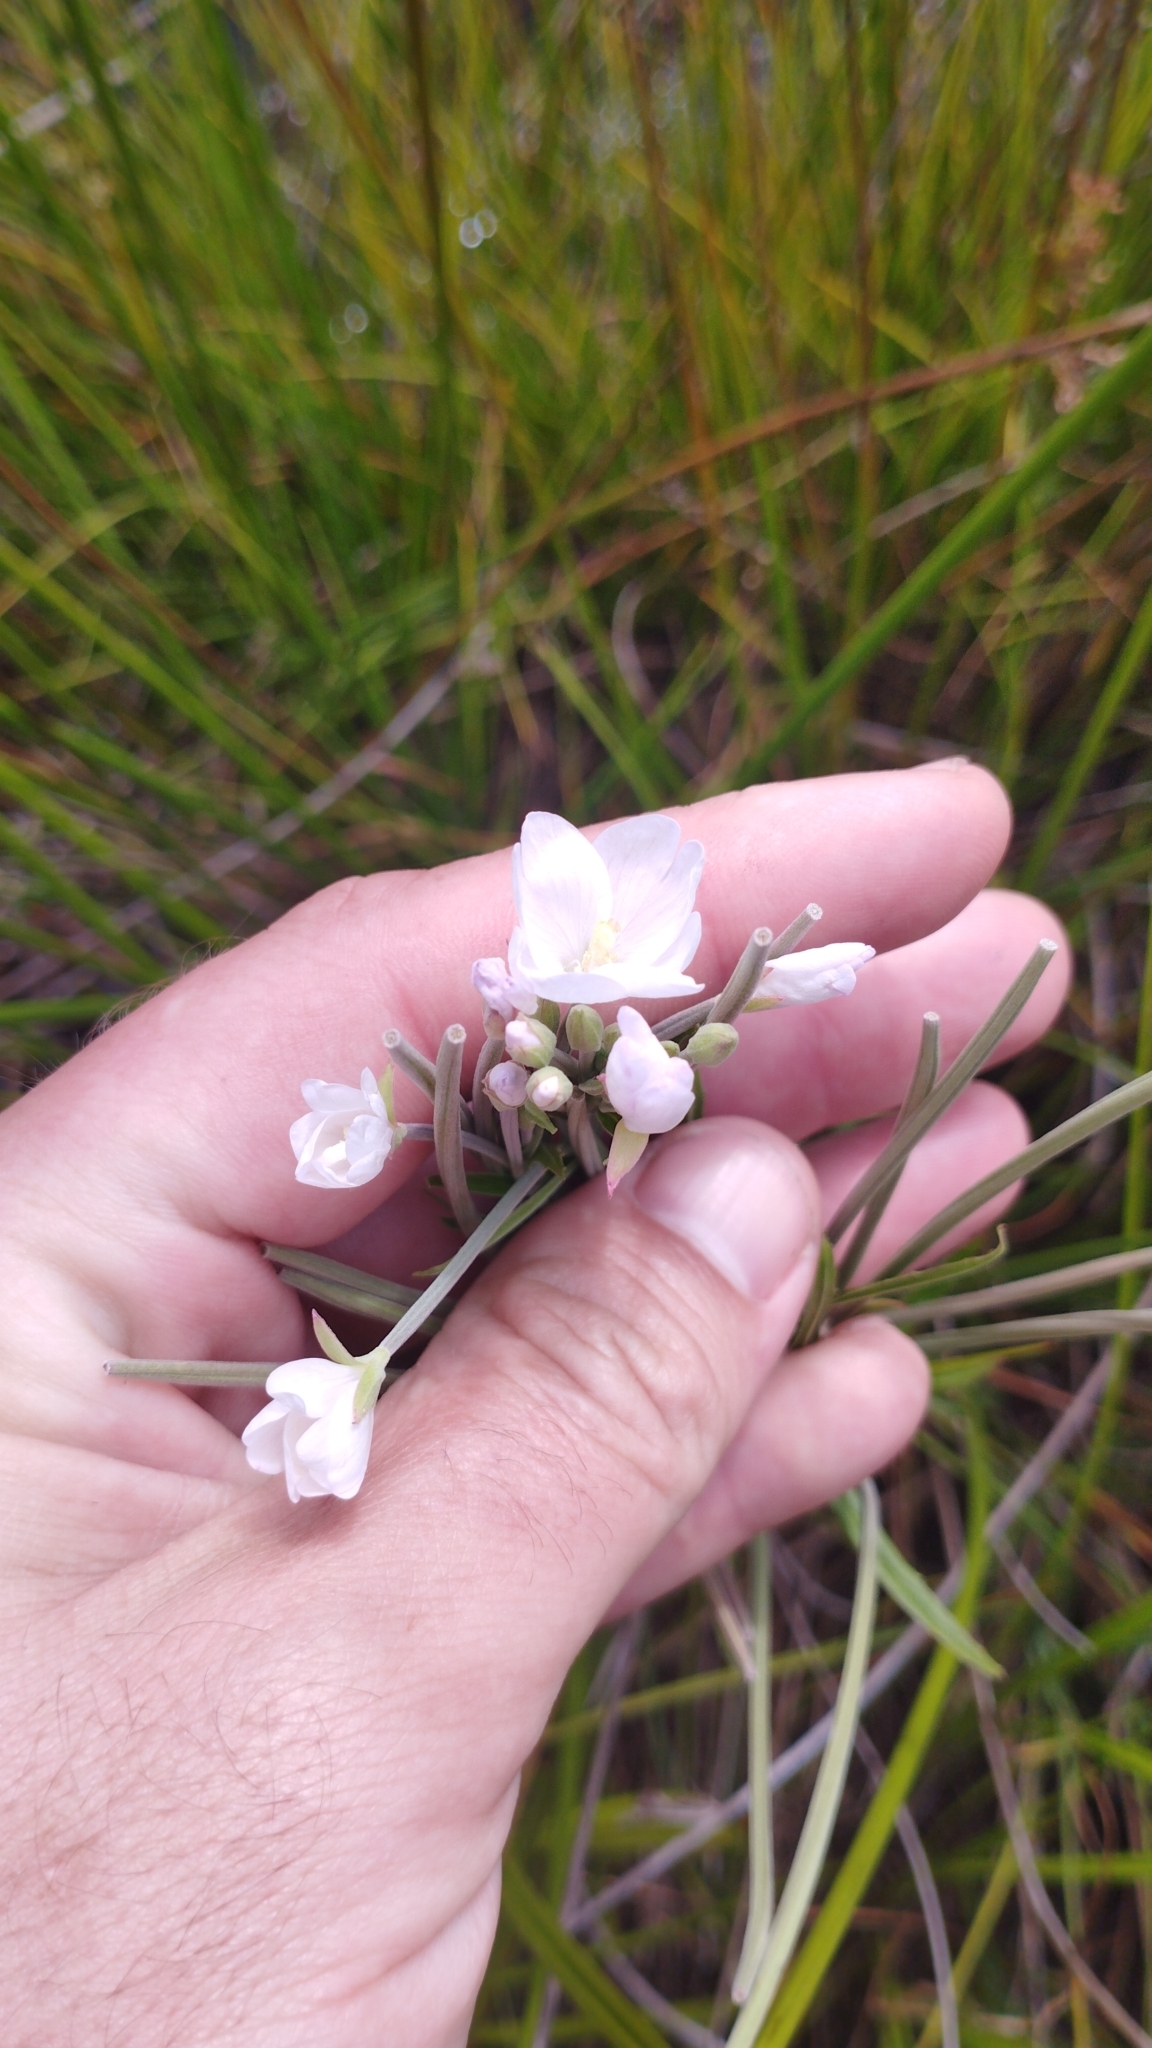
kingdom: Plantae
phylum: Tracheophyta
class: Magnoliopsida
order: Myrtales
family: Onagraceae
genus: Epilobium
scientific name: Epilobium pallidiflorum
